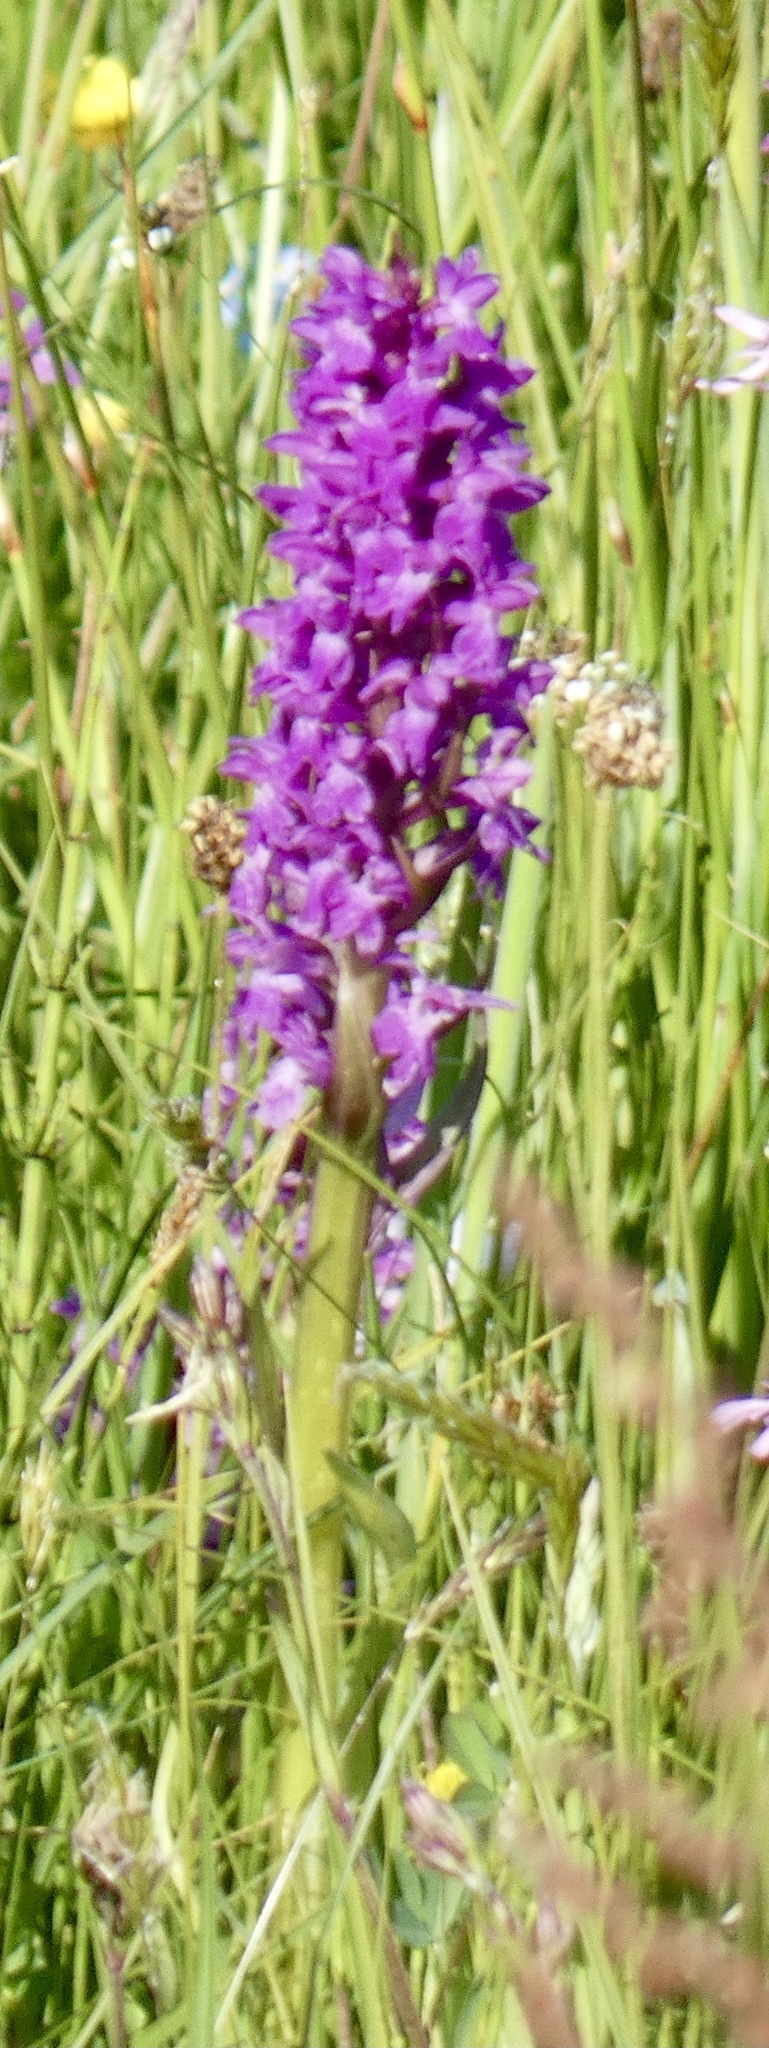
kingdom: Plantae
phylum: Tracheophyta
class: Liliopsida
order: Asparagales
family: Orchidaceae
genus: Dactylorhiza
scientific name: Dactylorhiza majalis
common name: Marsh orchid
